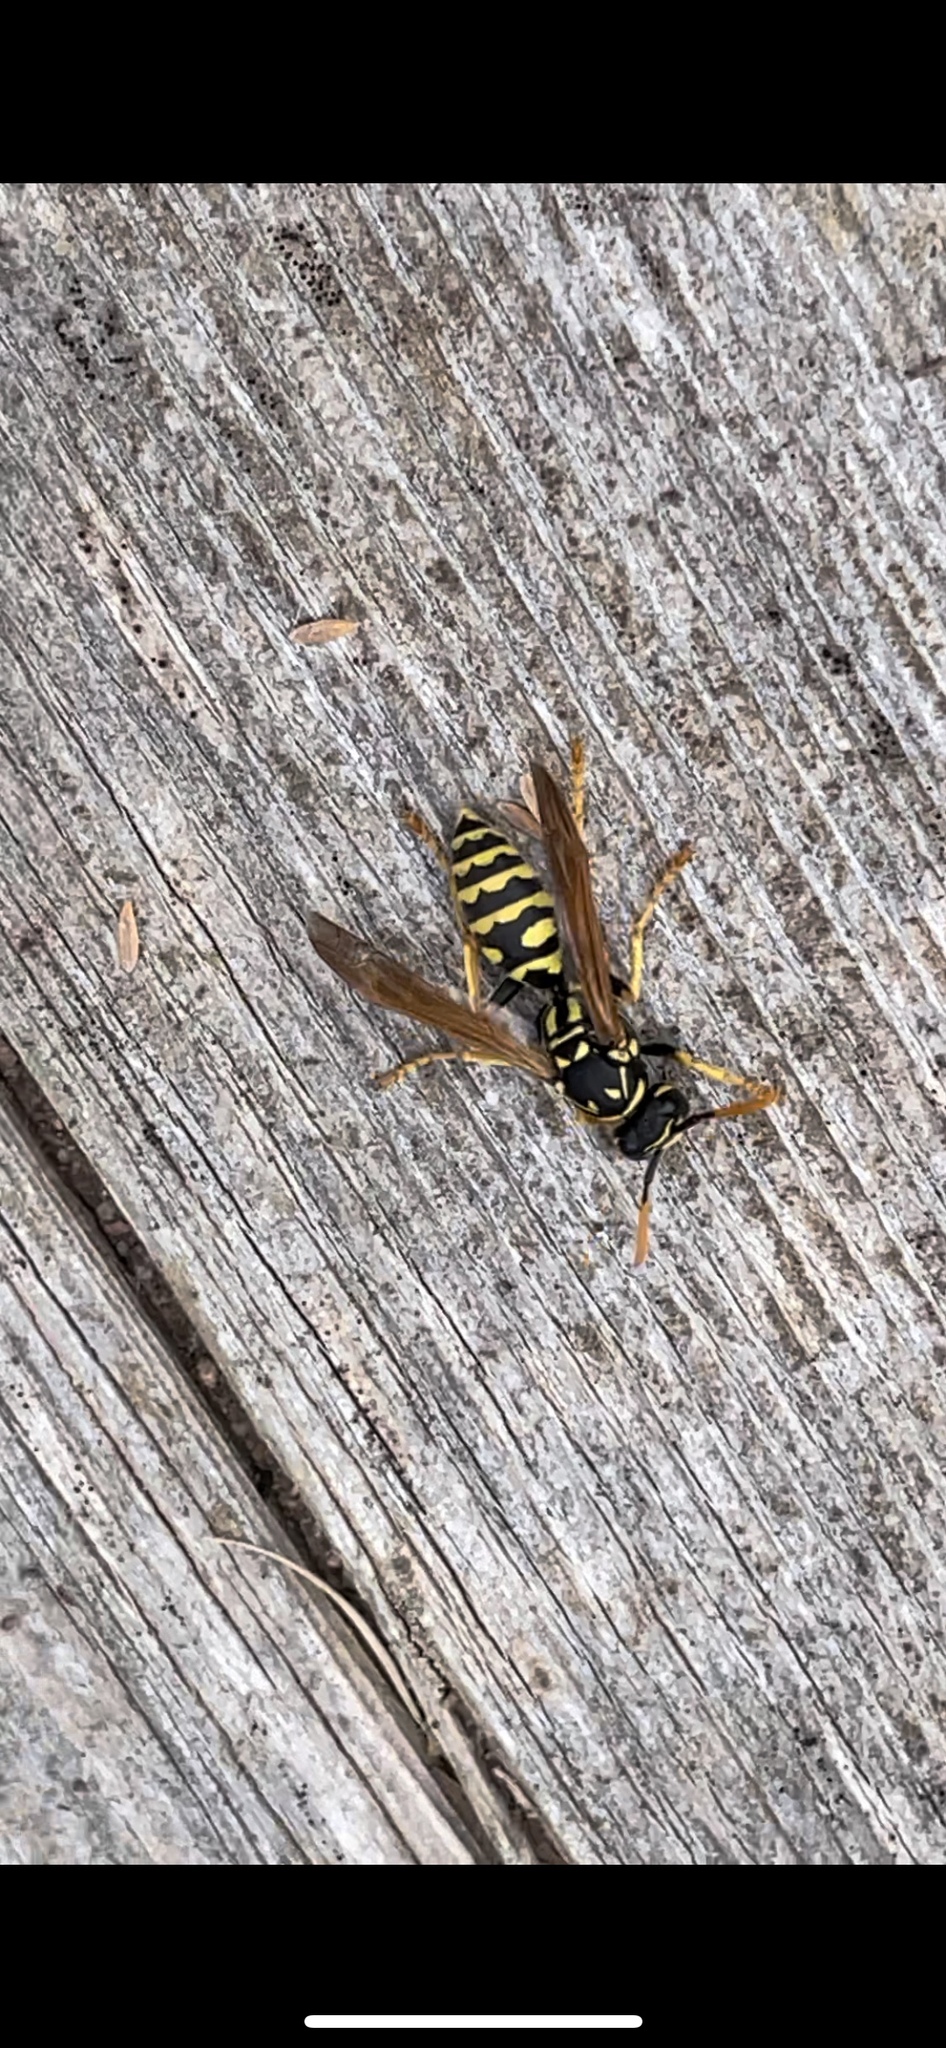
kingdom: Animalia
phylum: Arthropoda
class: Insecta
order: Hymenoptera
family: Eumenidae
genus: Polistes
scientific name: Polistes dominula
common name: Paper wasp
